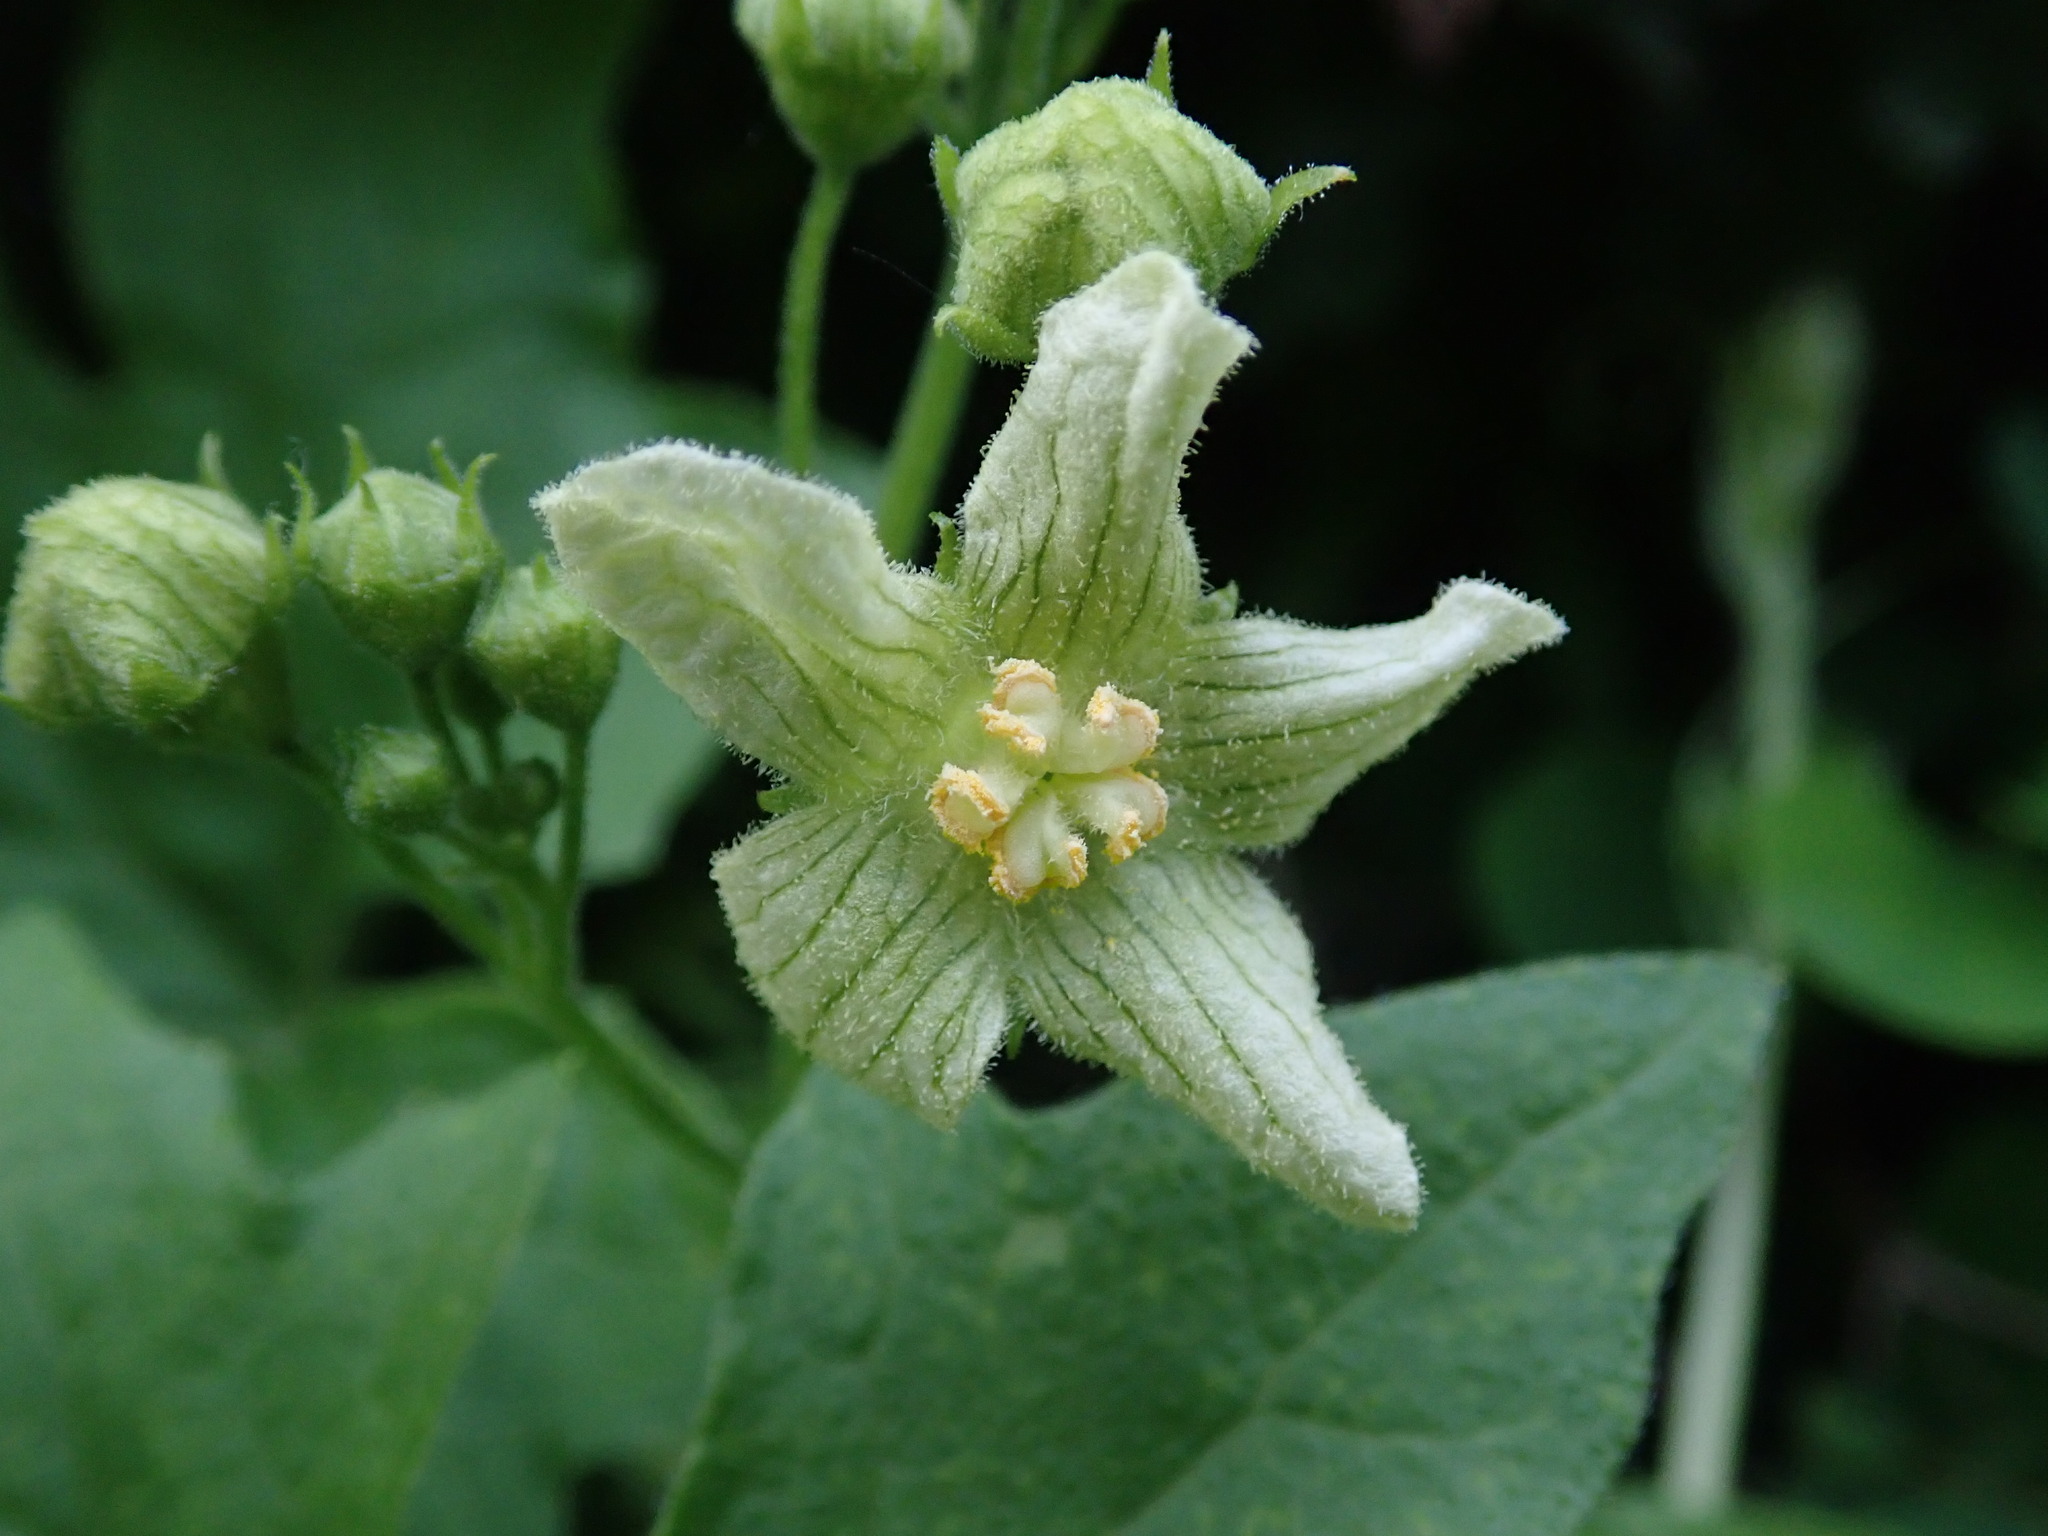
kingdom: Plantae
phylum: Tracheophyta
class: Magnoliopsida
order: Cucurbitales
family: Cucurbitaceae
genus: Bryonia
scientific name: Bryonia cretica
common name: Cretan bryony
